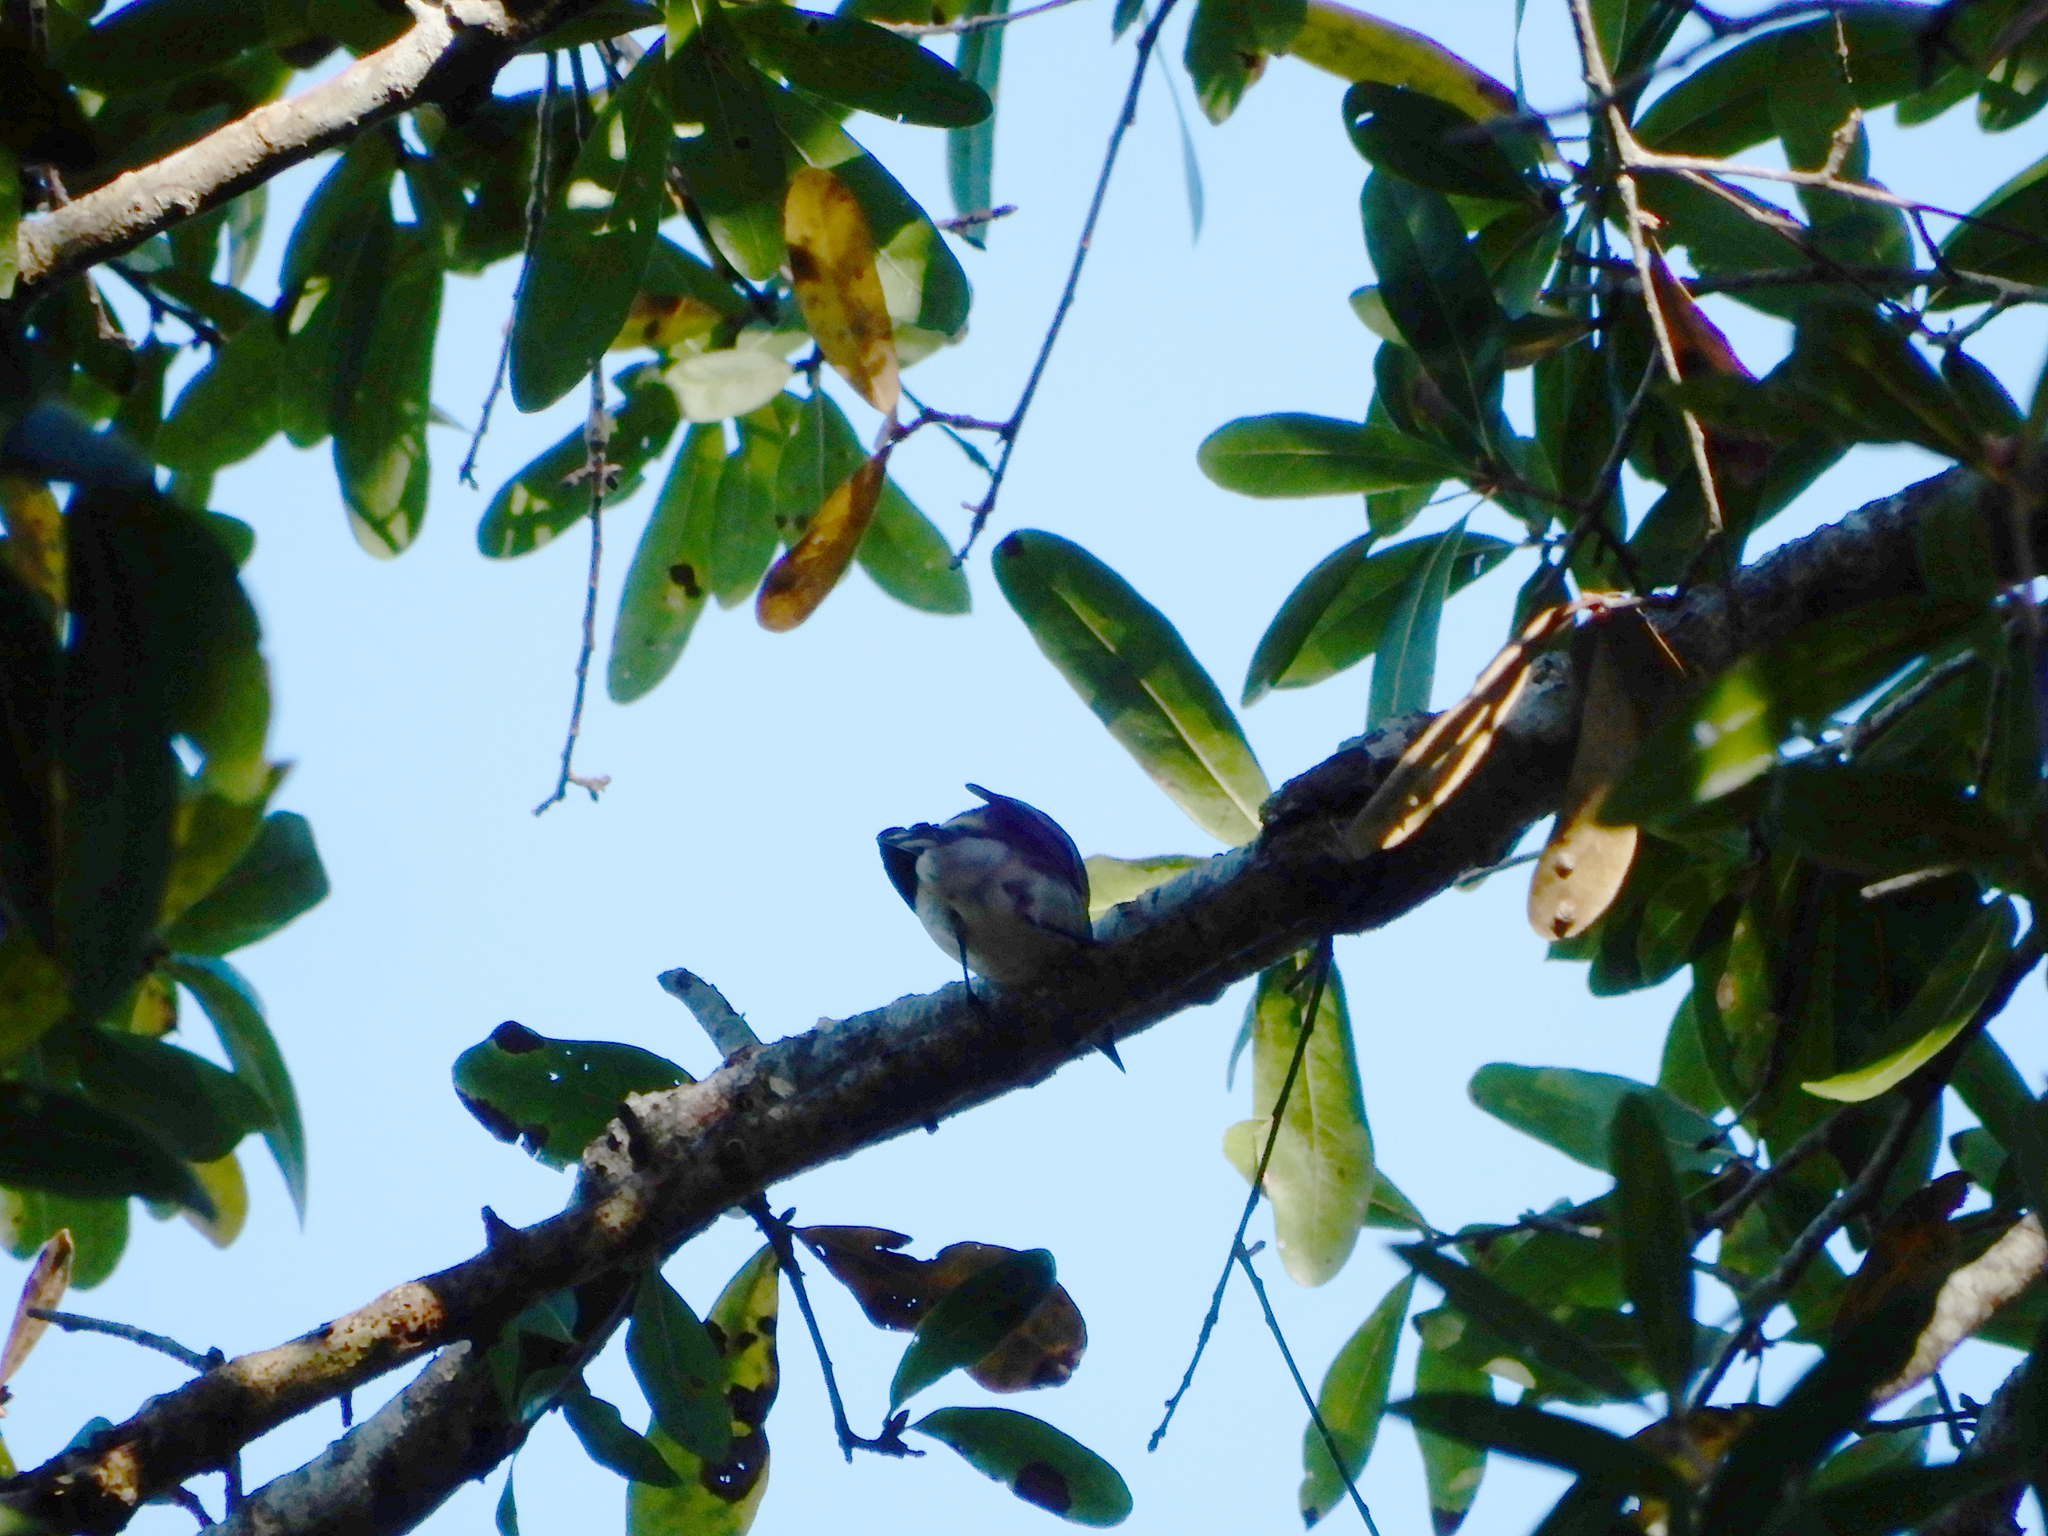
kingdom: Animalia
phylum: Chordata
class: Aves
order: Passeriformes
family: Parulidae
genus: Setophaga
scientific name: Setophaga coronata
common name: Myrtle warbler
